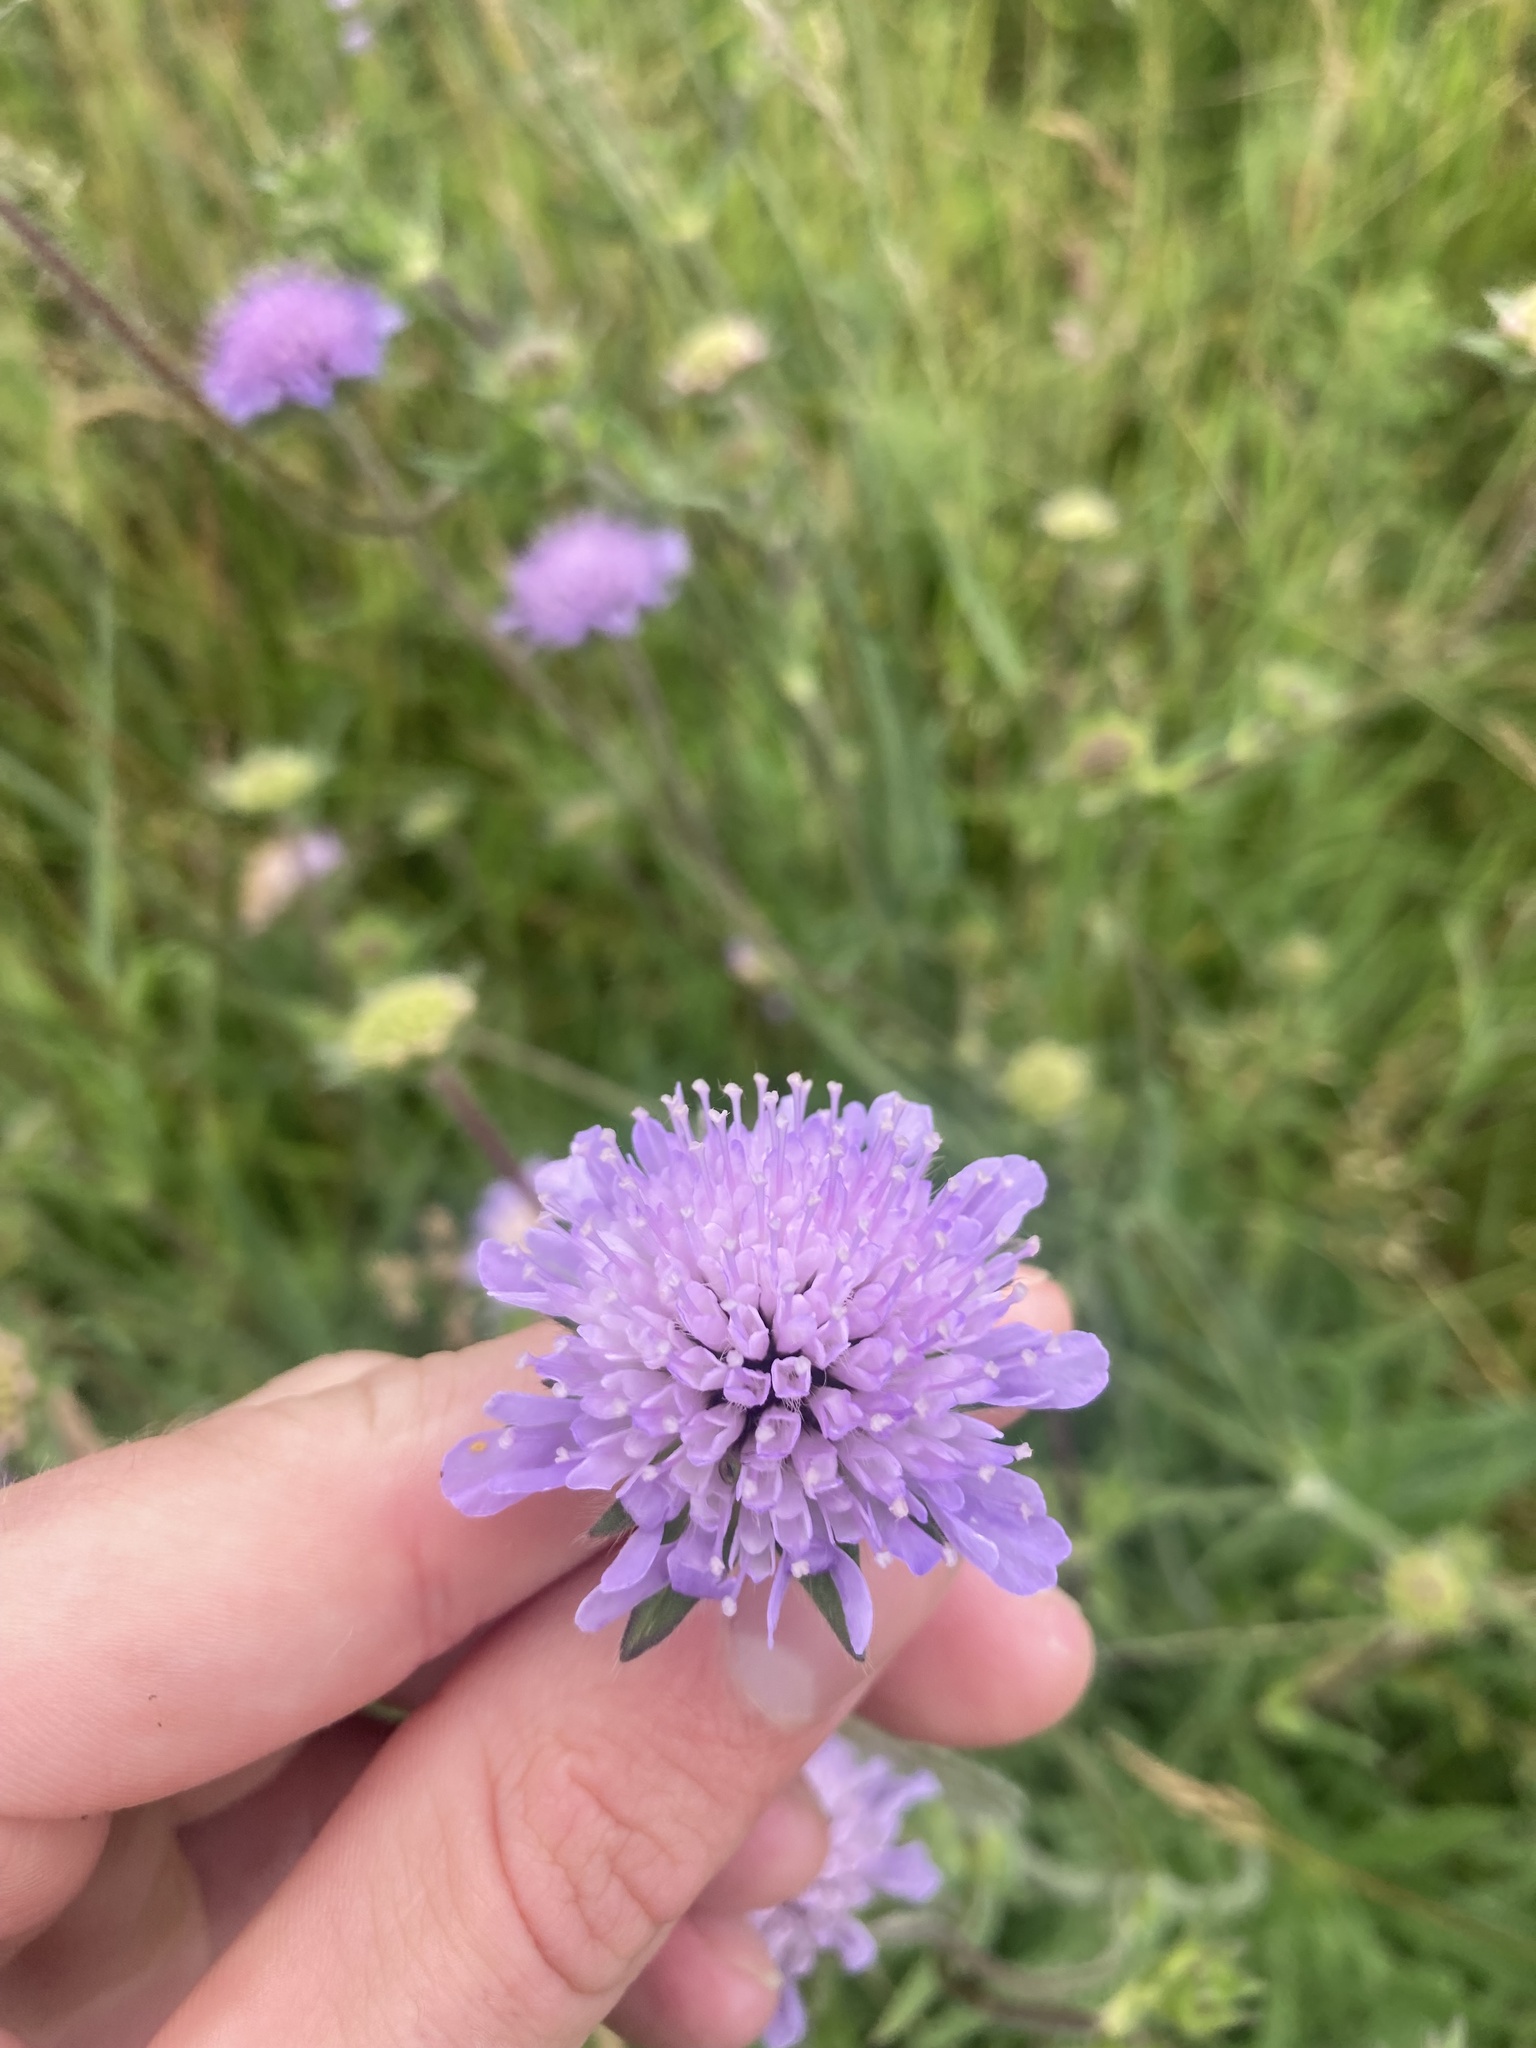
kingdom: Plantae
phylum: Tracheophyta
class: Magnoliopsida
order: Dipsacales
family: Caprifoliaceae
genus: Knautia
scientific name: Knautia arvensis
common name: Field scabiosa
